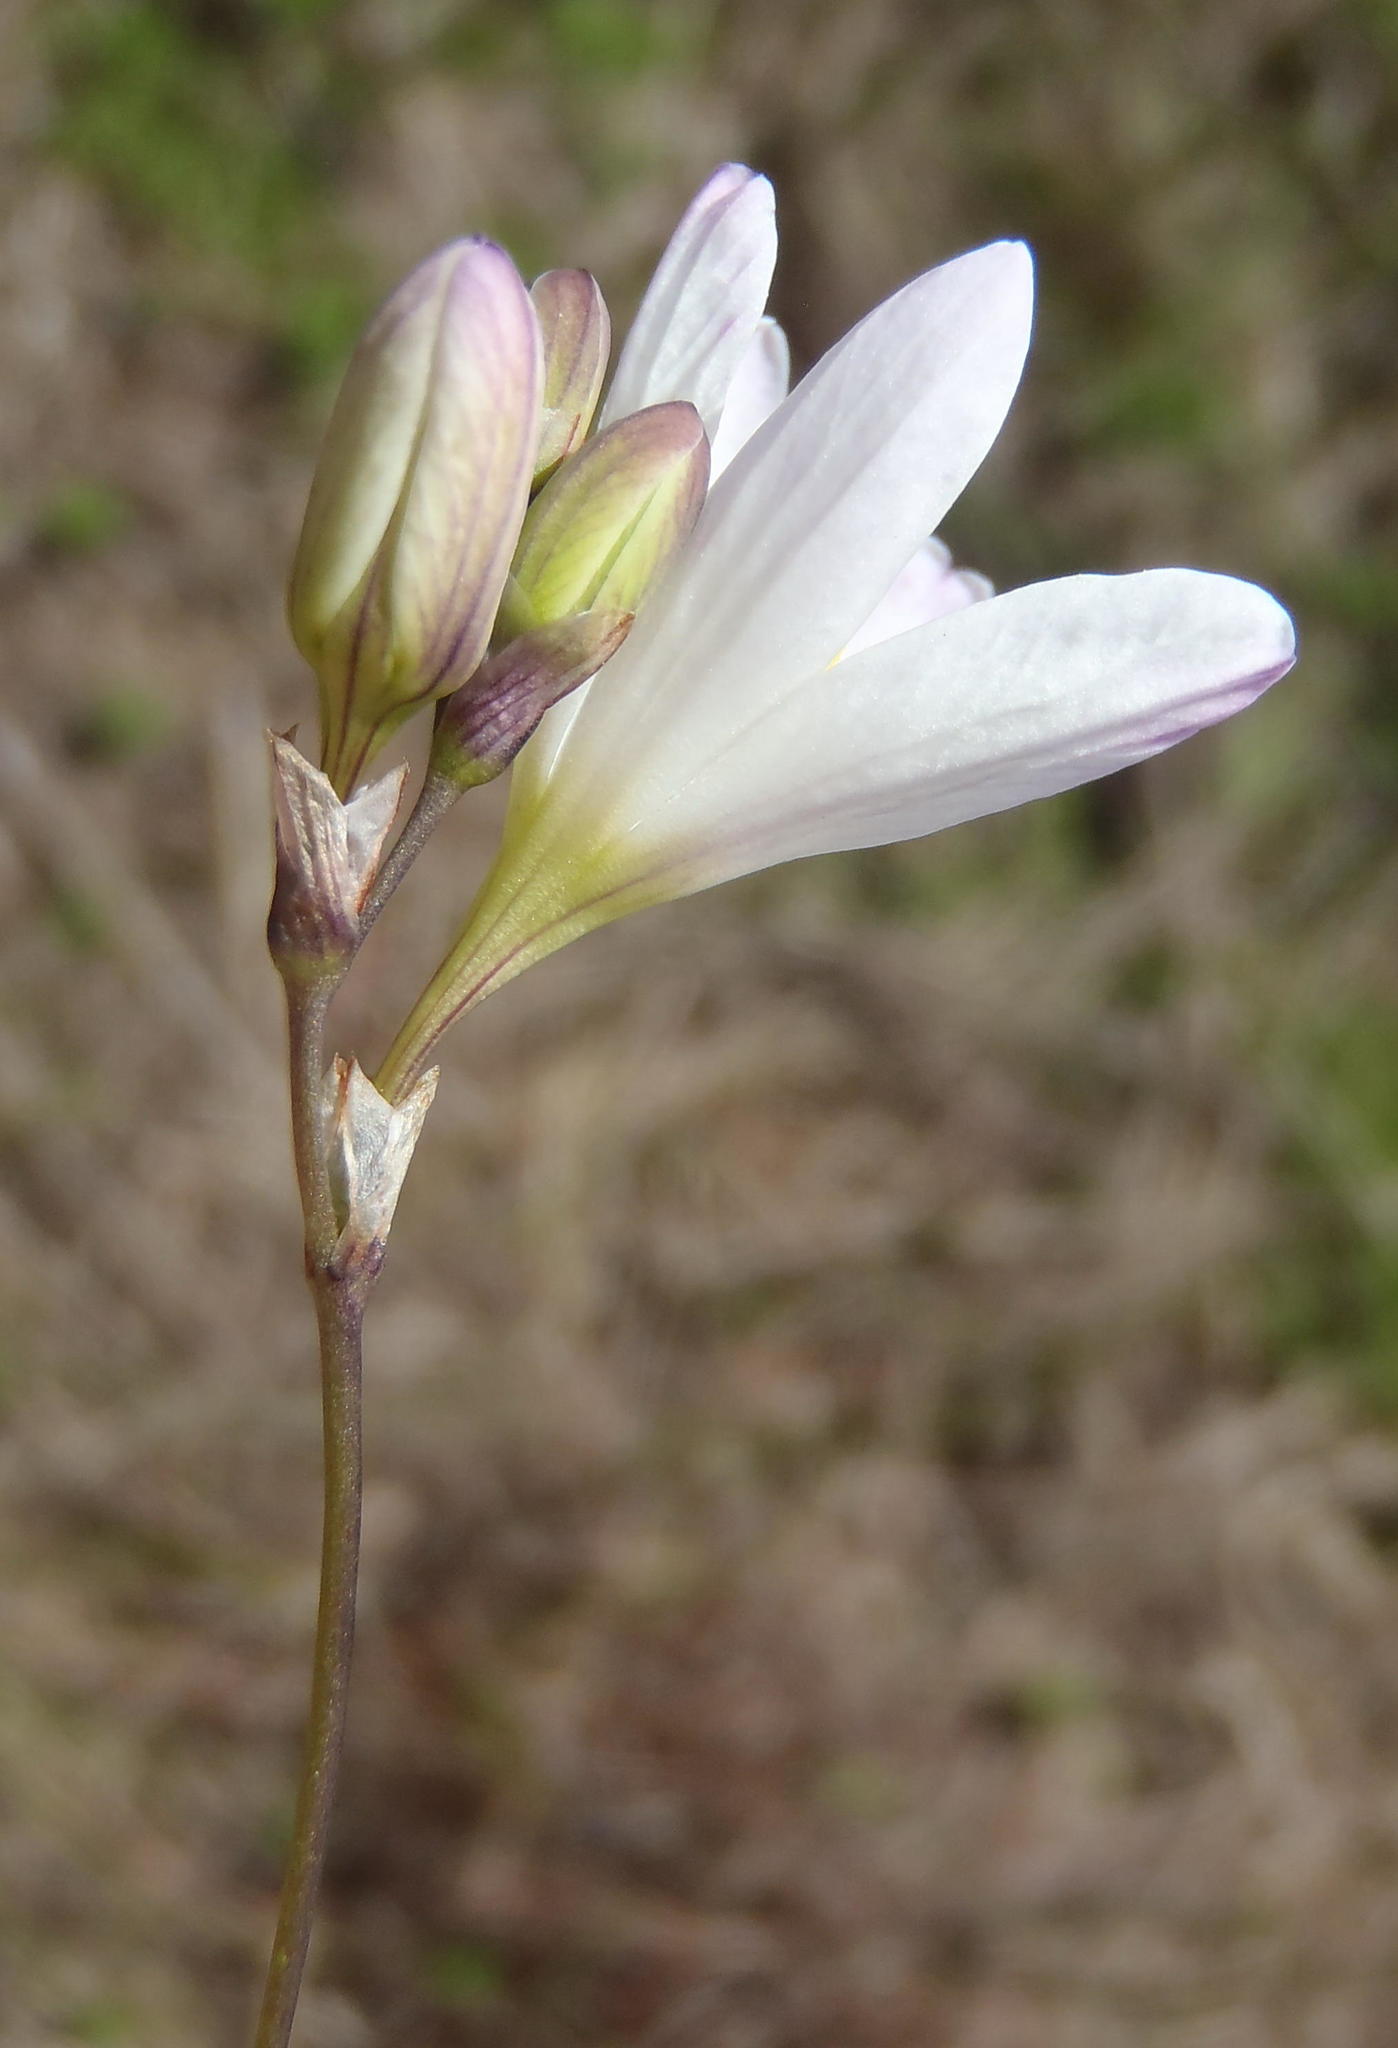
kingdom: Plantae
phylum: Tracheophyta
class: Liliopsida
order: Asparagales
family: Iridaceae
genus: Ixia
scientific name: Ixia orientalis
